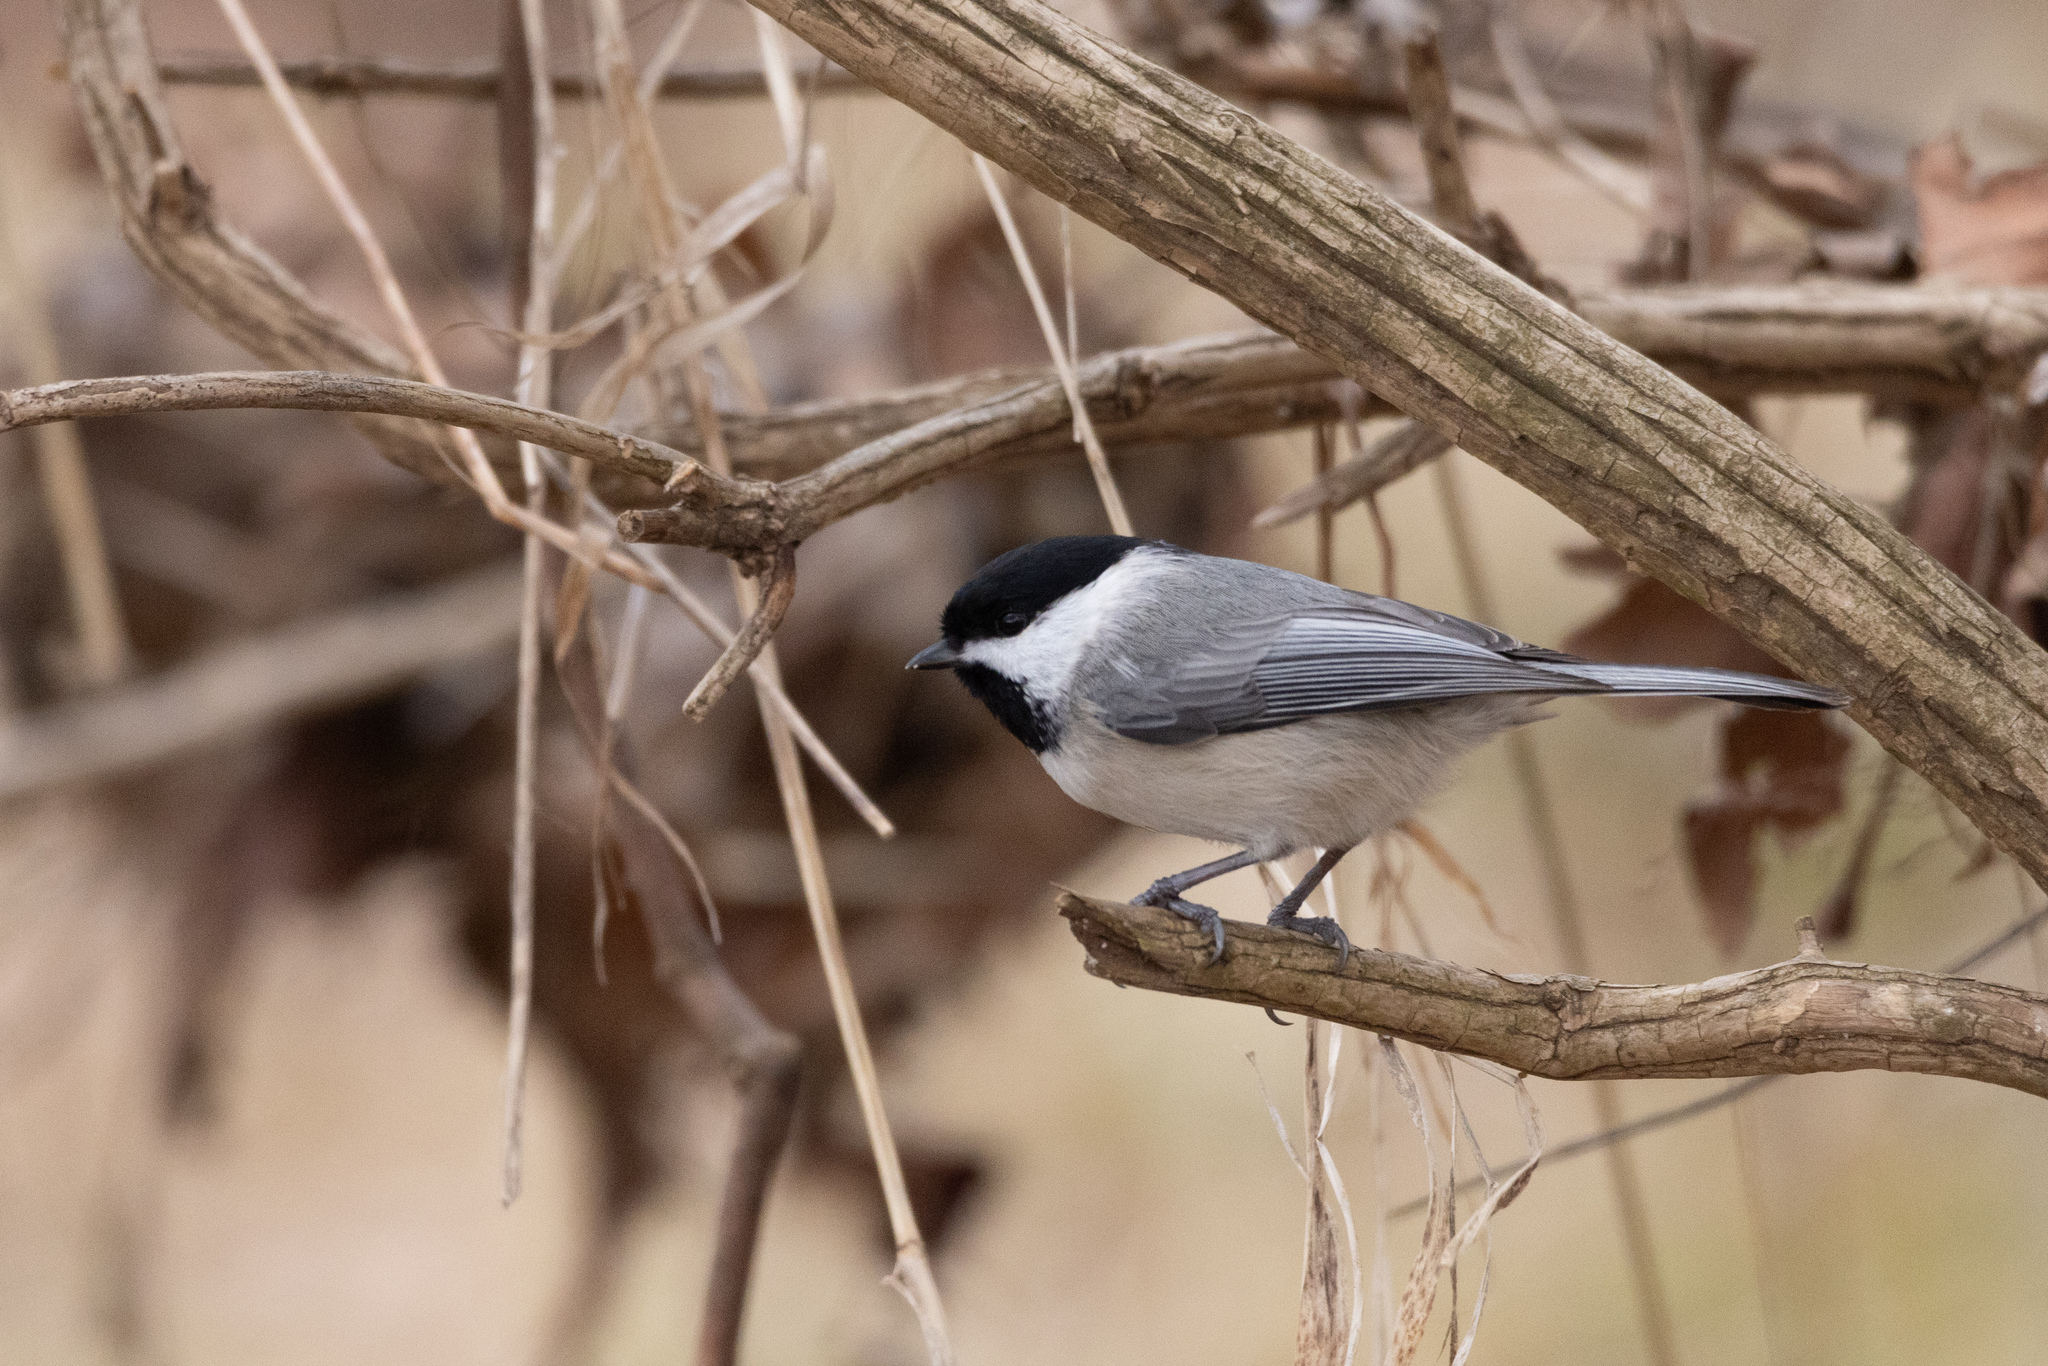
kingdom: Animalia
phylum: Chordata
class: Aves
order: Passeriformes
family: Paridae
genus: Poecile
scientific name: Poecile carolinensis
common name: Carolina chickadee
